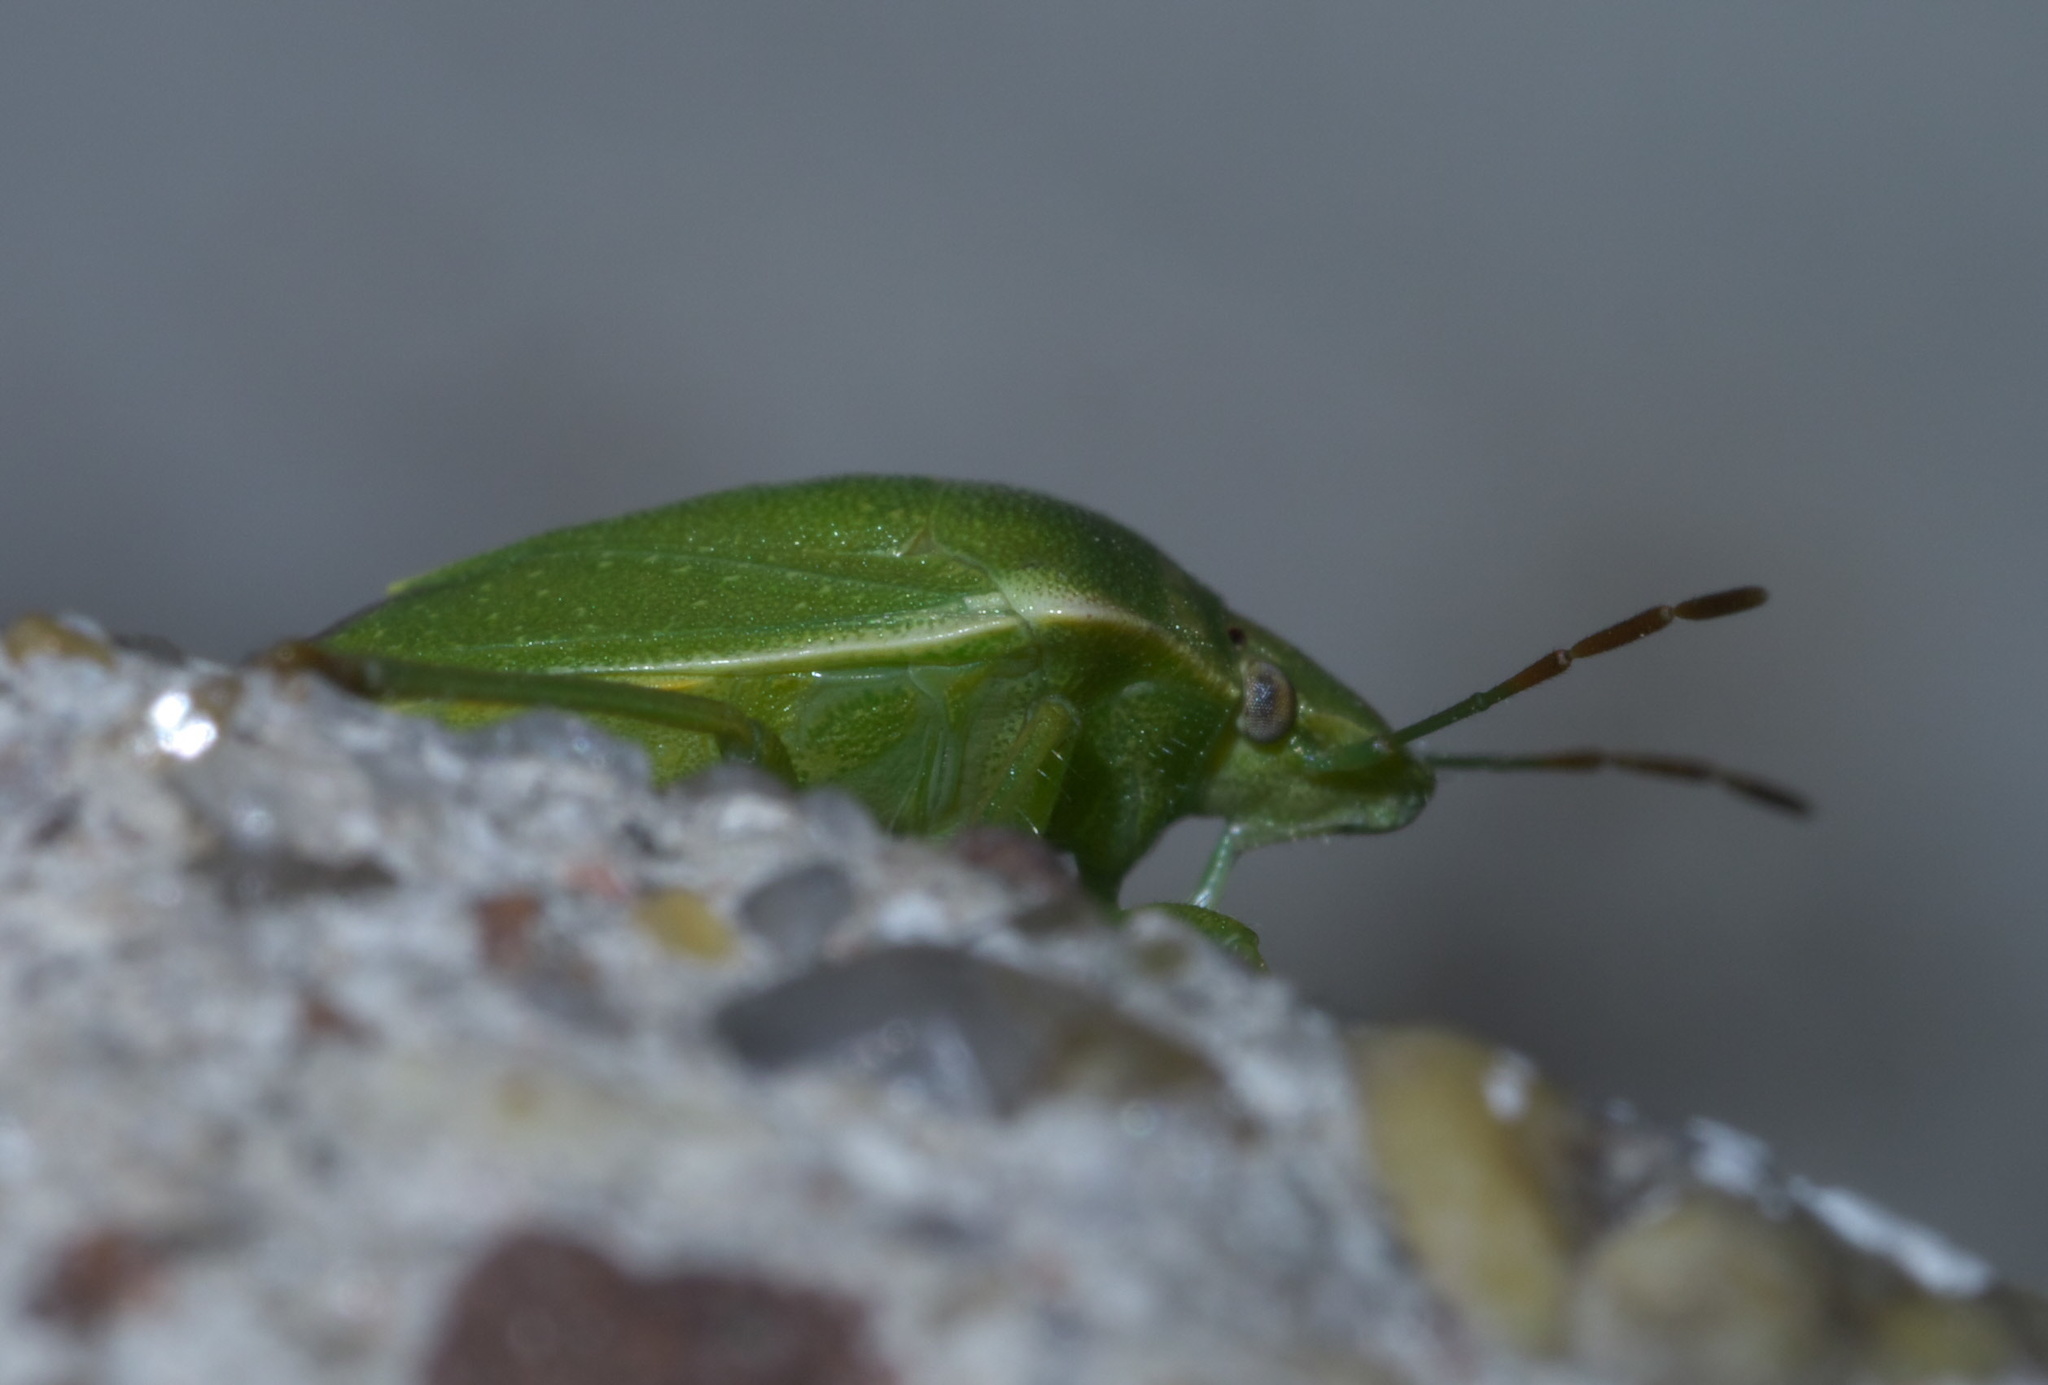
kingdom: Animalia
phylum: Arthropoda
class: Insecta
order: Hemiptera
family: Pentatomidae
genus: Thyanta
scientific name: Thyanta accerra
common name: Stink bug
